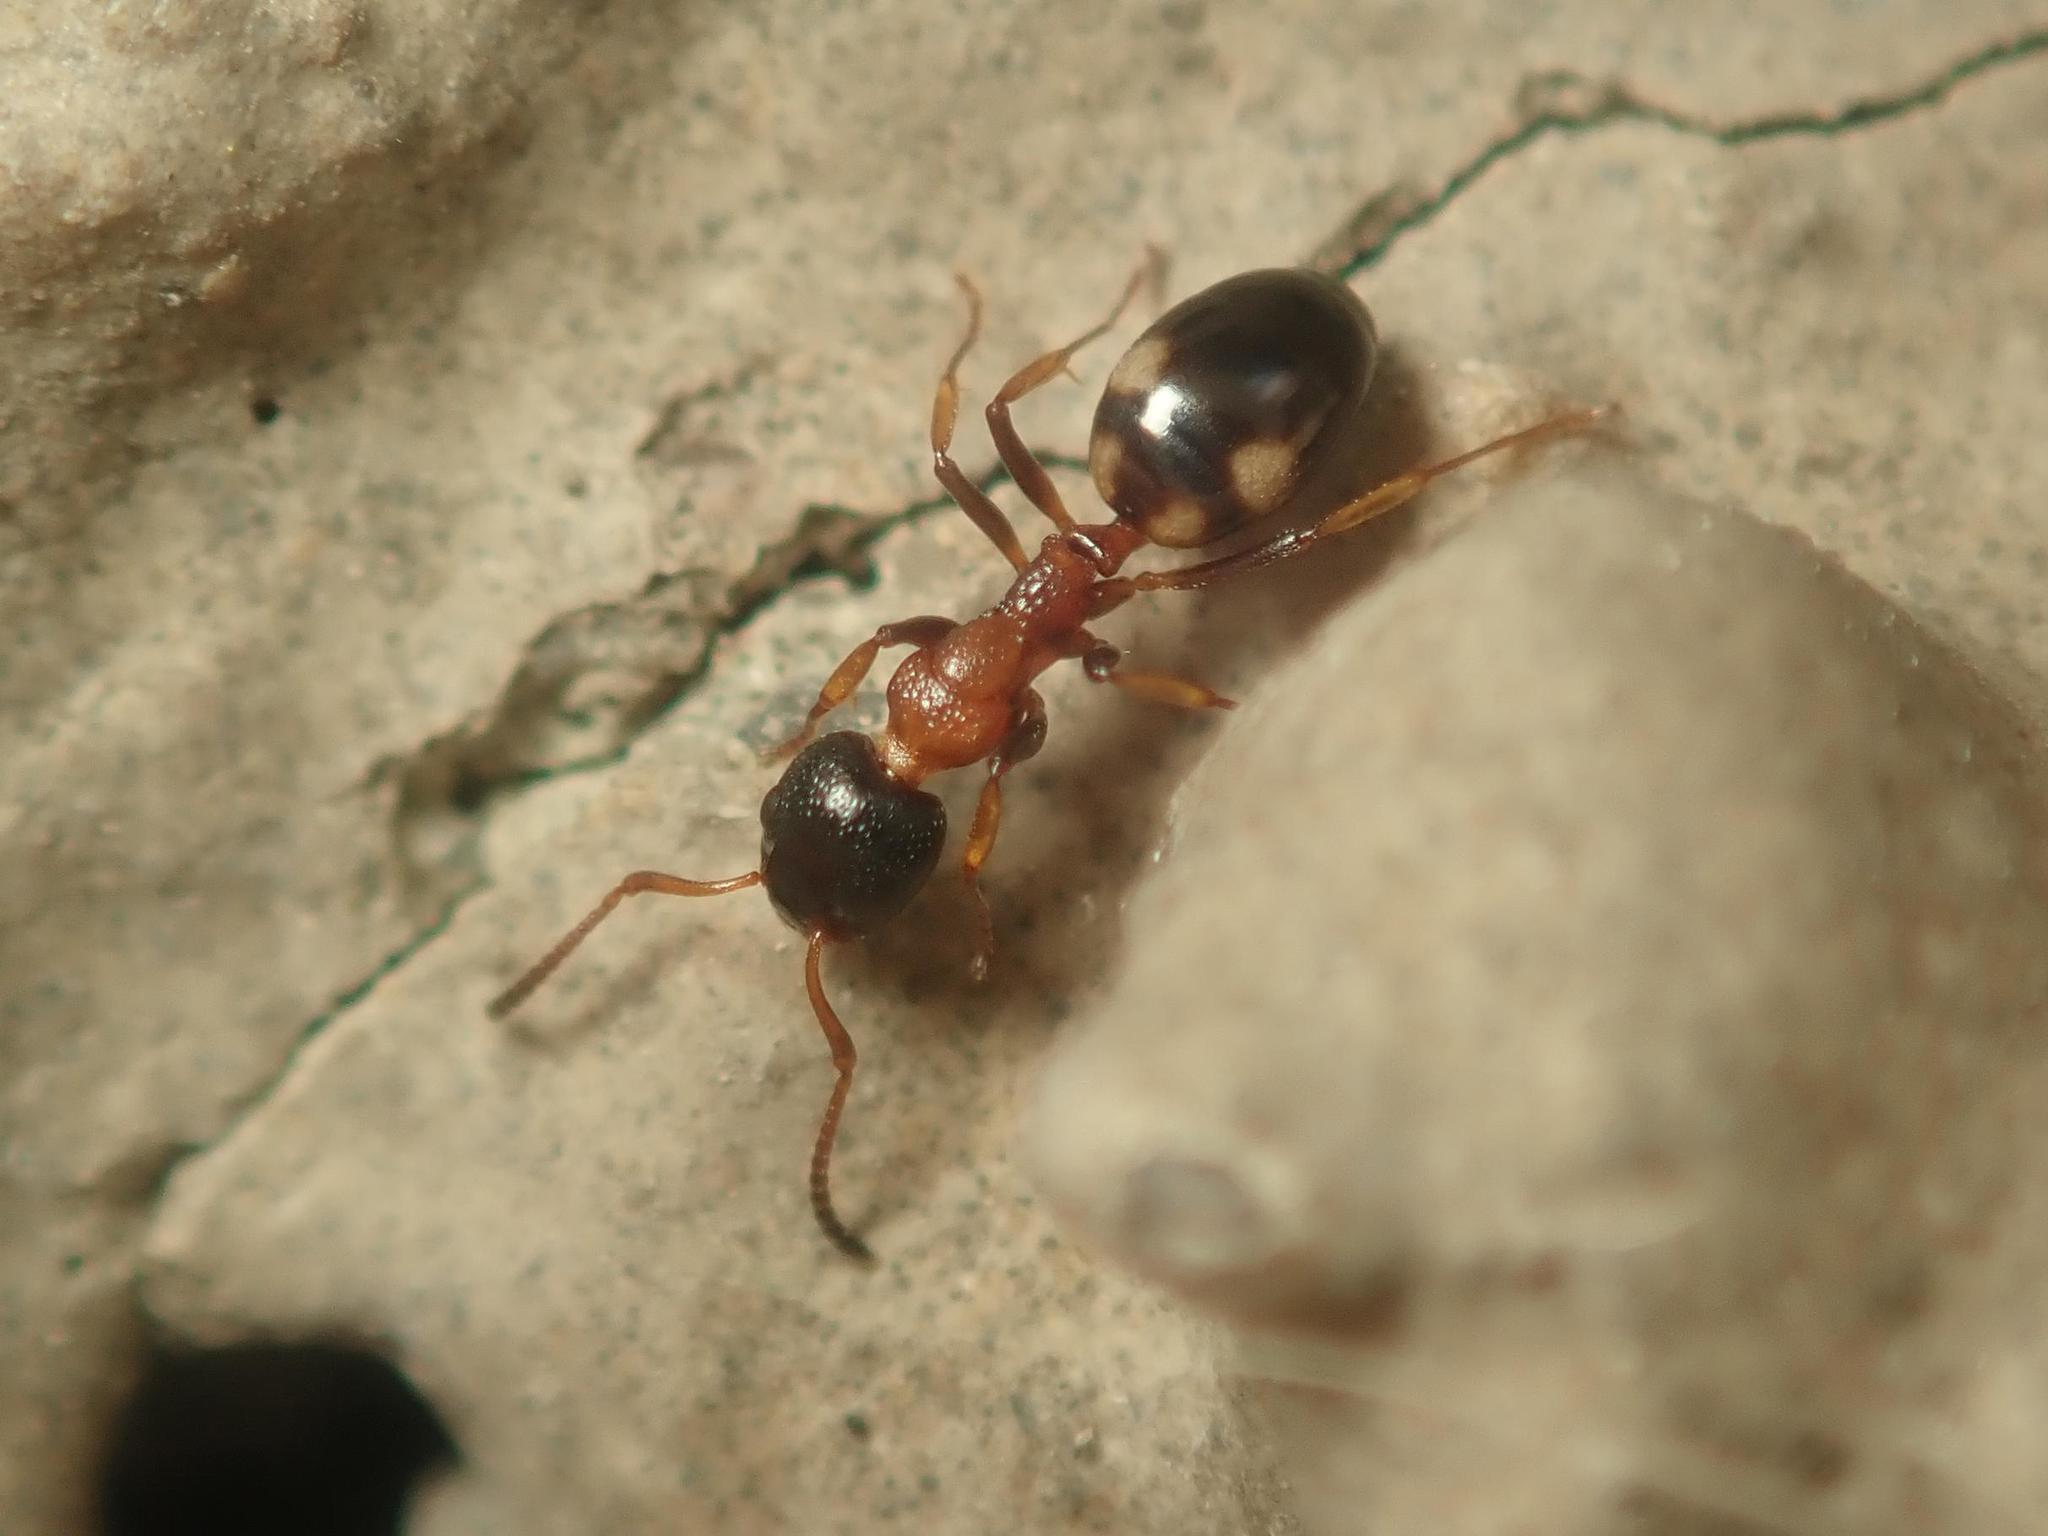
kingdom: Animalia
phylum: Arthropoda
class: Insecta
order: Hymenoptera
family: Formicidae
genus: Dolichoderus
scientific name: Dolichoderus quadripunctatus
